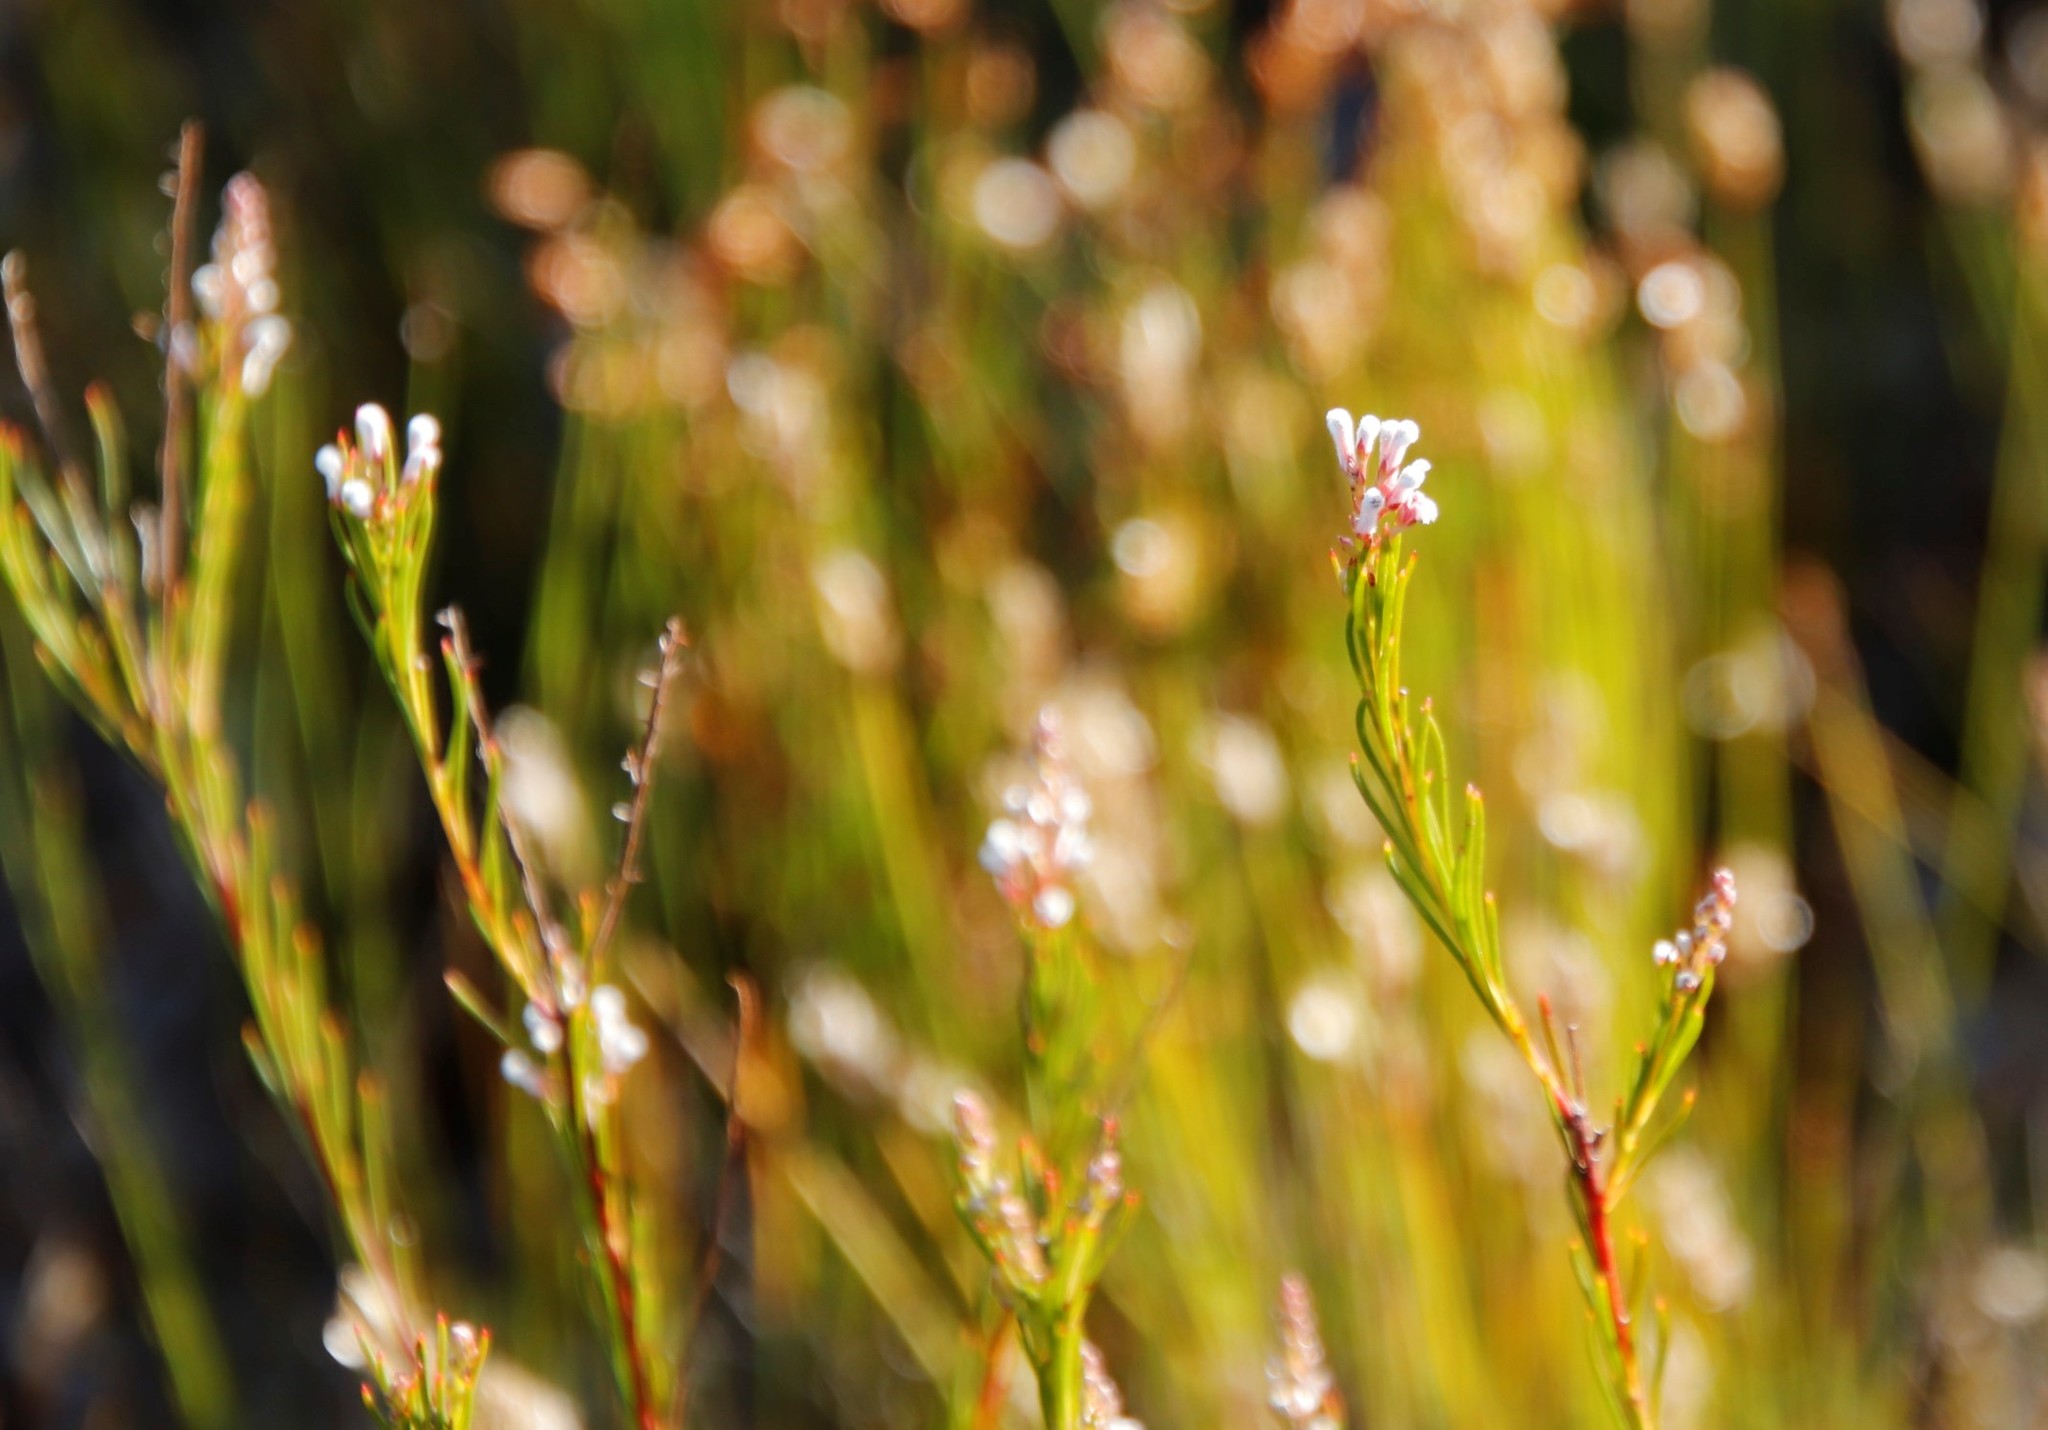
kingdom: Plantae
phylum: Tracheophyta
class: Magnoliopsida
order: Proteales
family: Proteaceae
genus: Spatalla
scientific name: Spatalla racemosa
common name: Lax-stalked spoon
